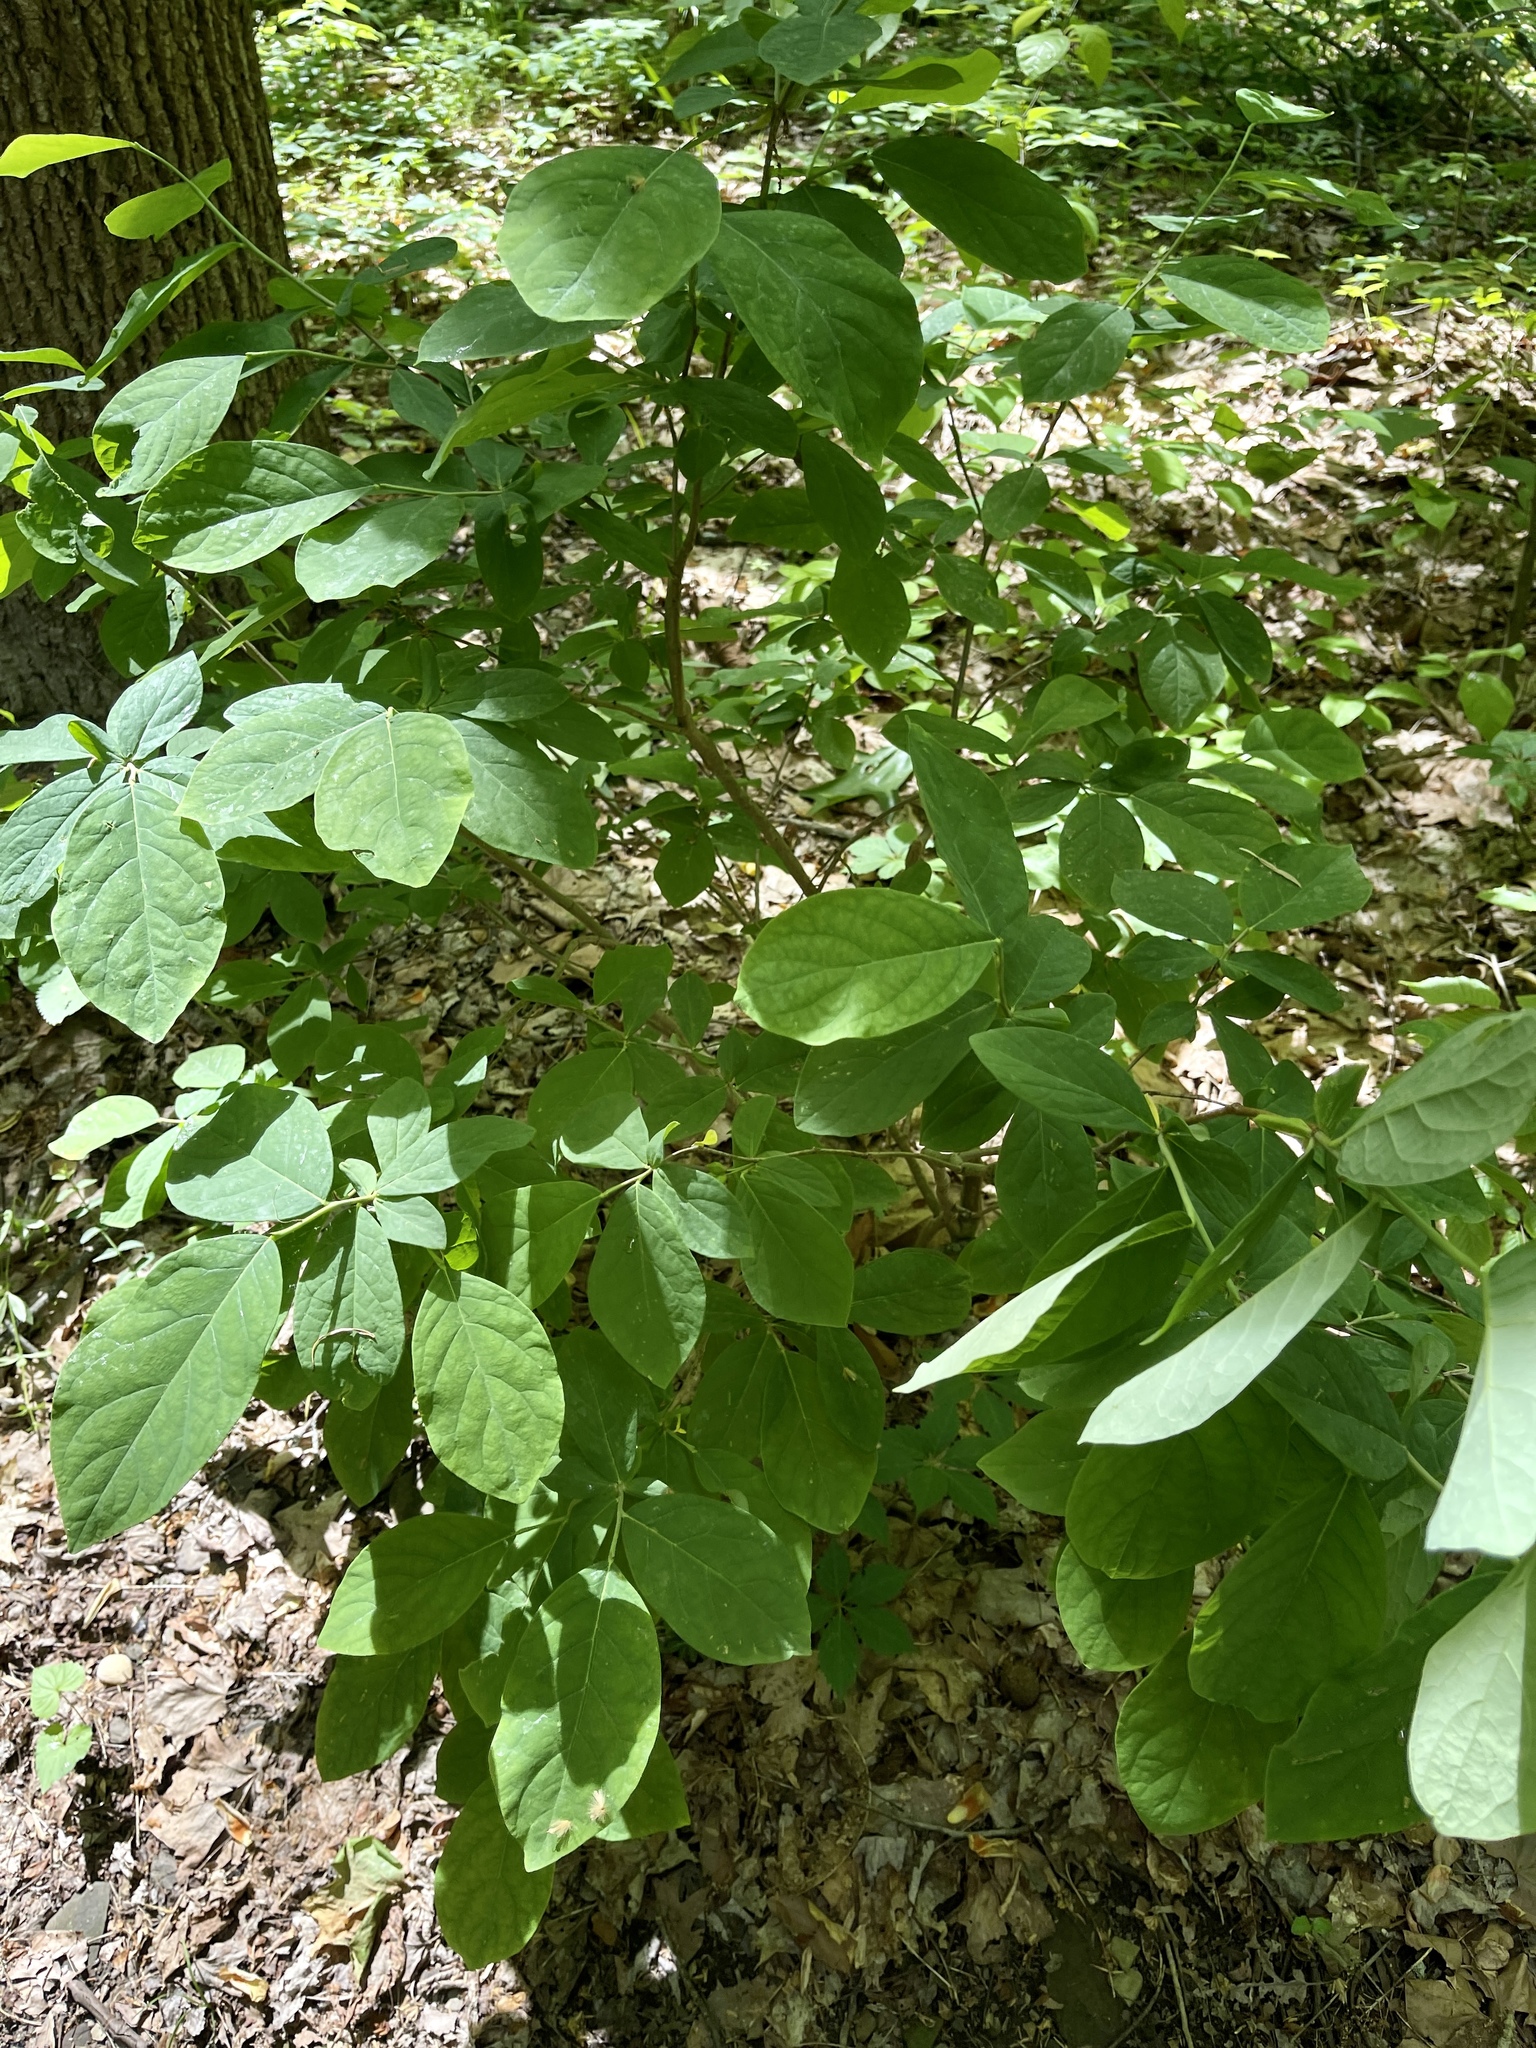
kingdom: Plantae
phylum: Tracheophyta
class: Magnoliopsida
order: Malvales
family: Thymelaeaceae
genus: Dirca
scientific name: Dirca palustris
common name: Leatherwood
